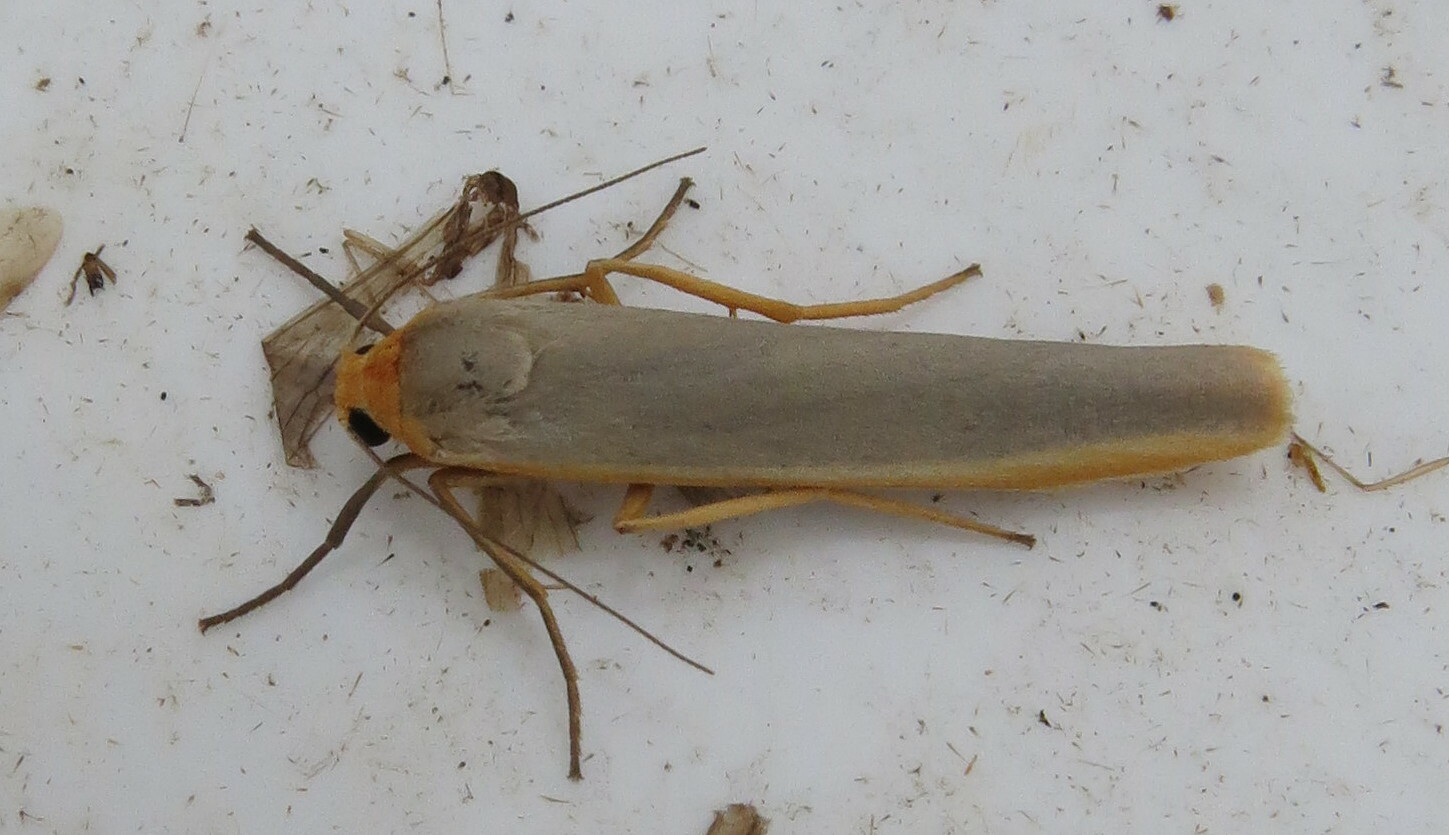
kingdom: Animalia
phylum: Arthropoda
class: Insecta
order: Lepidoptera
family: Erebidae
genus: Manulea
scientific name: Manulea complana
